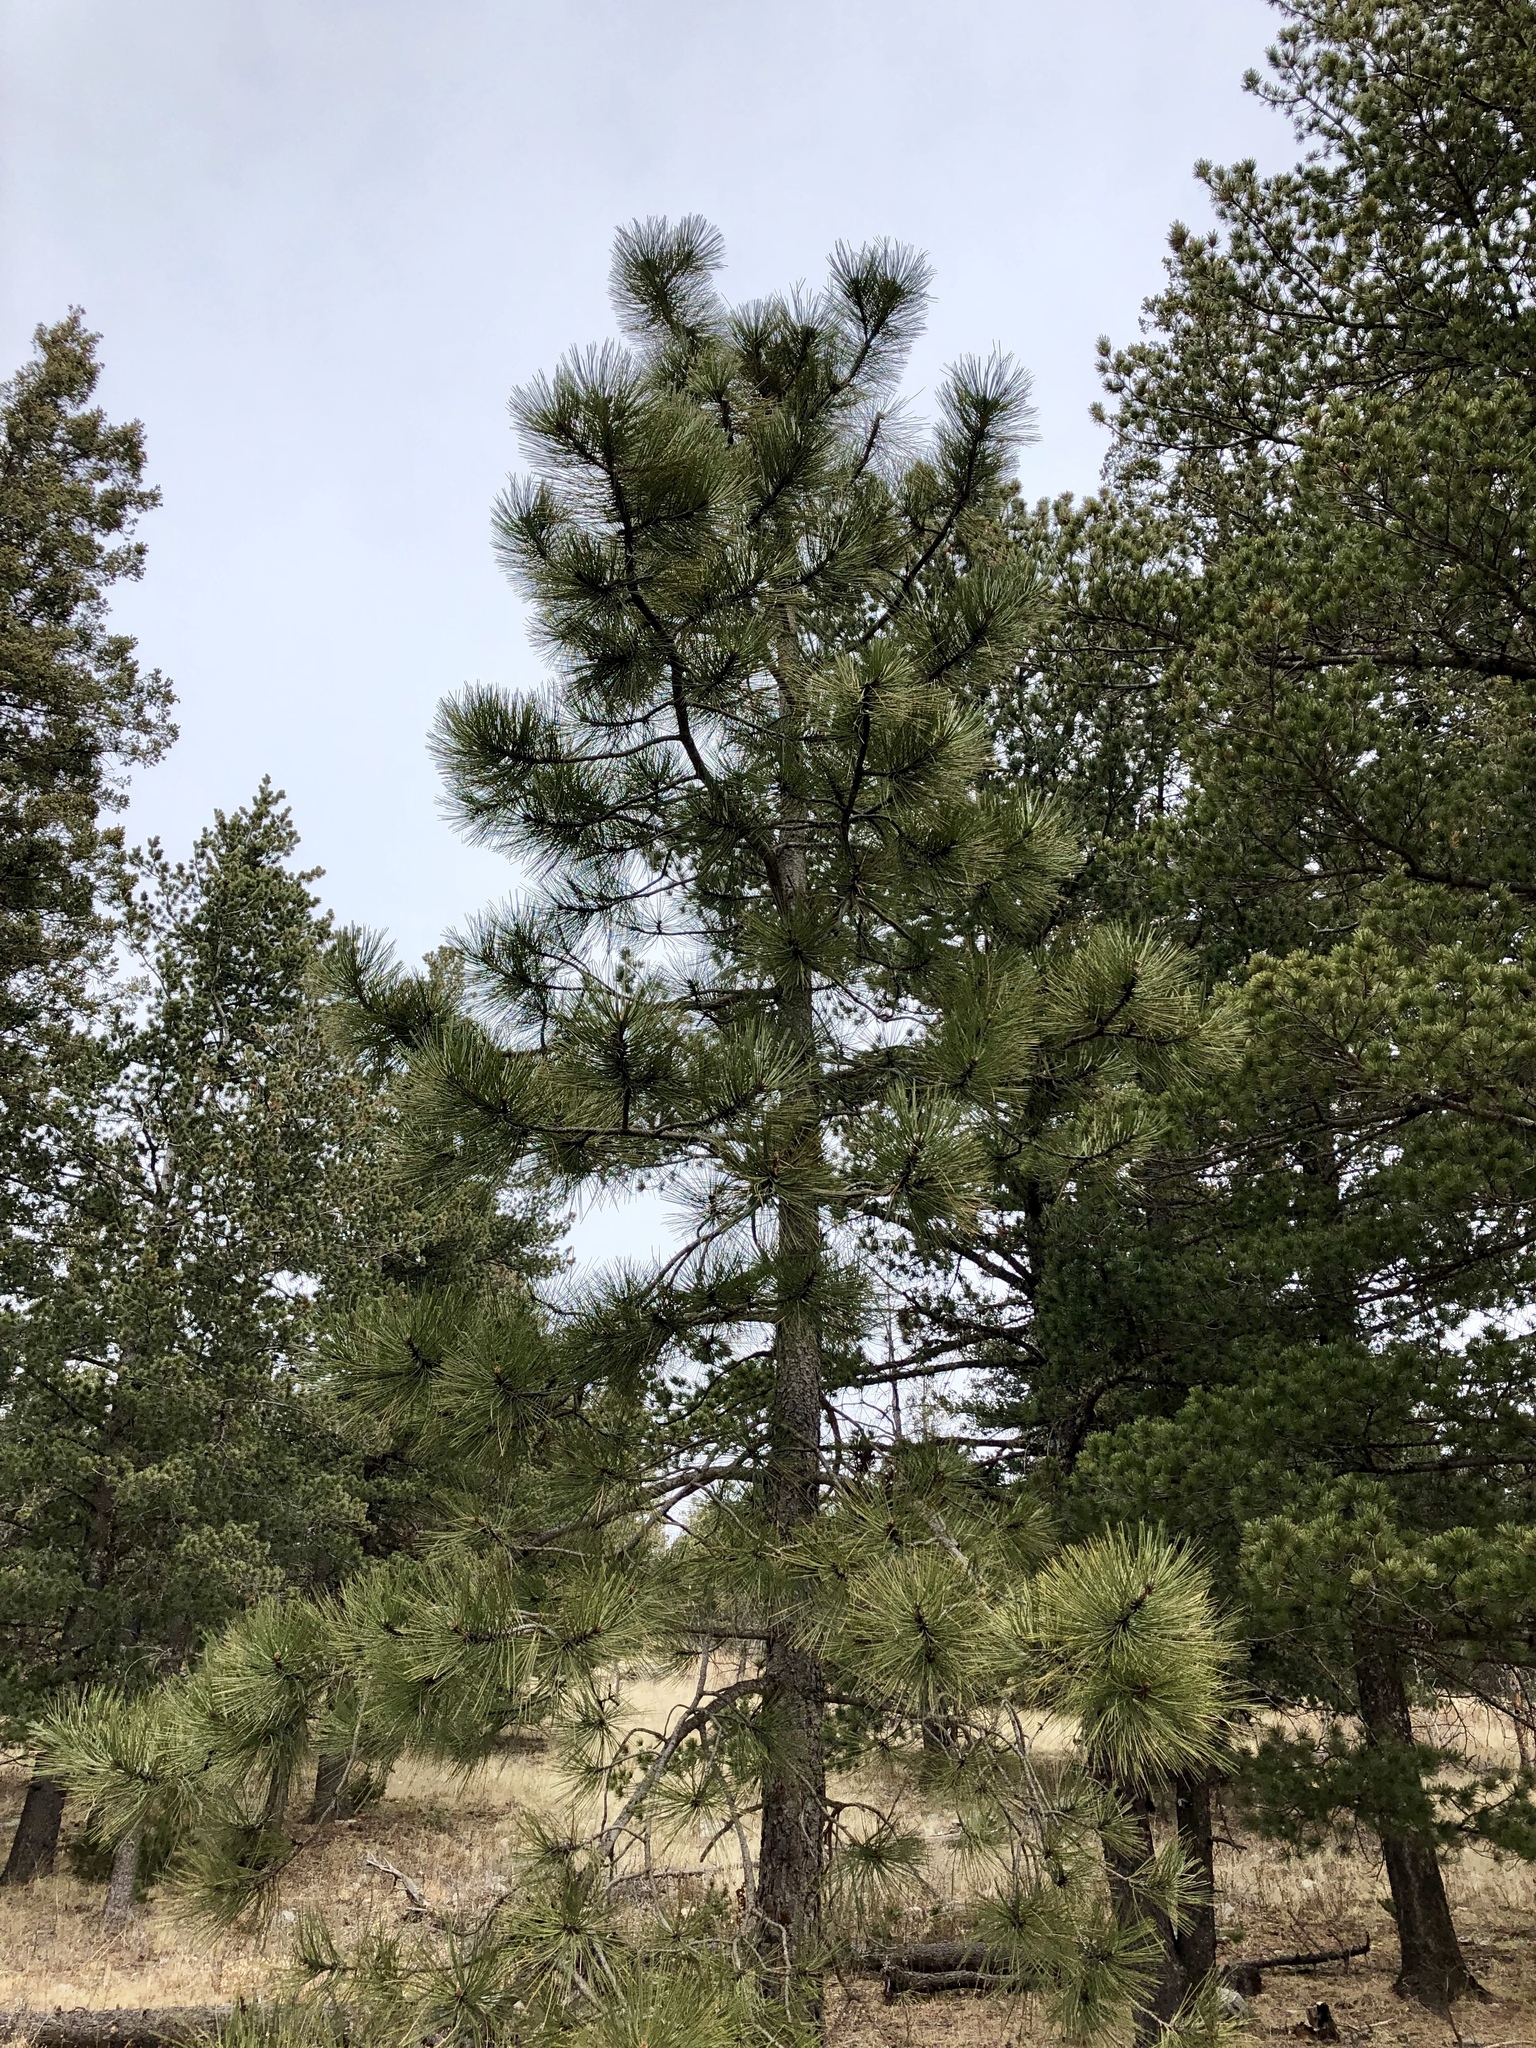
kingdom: Plantae
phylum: Tracheophyta
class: Pinopsida
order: Pinales
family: Pinaceae
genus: Pinus
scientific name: Pinus ponderosa
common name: Western yellow-pine
